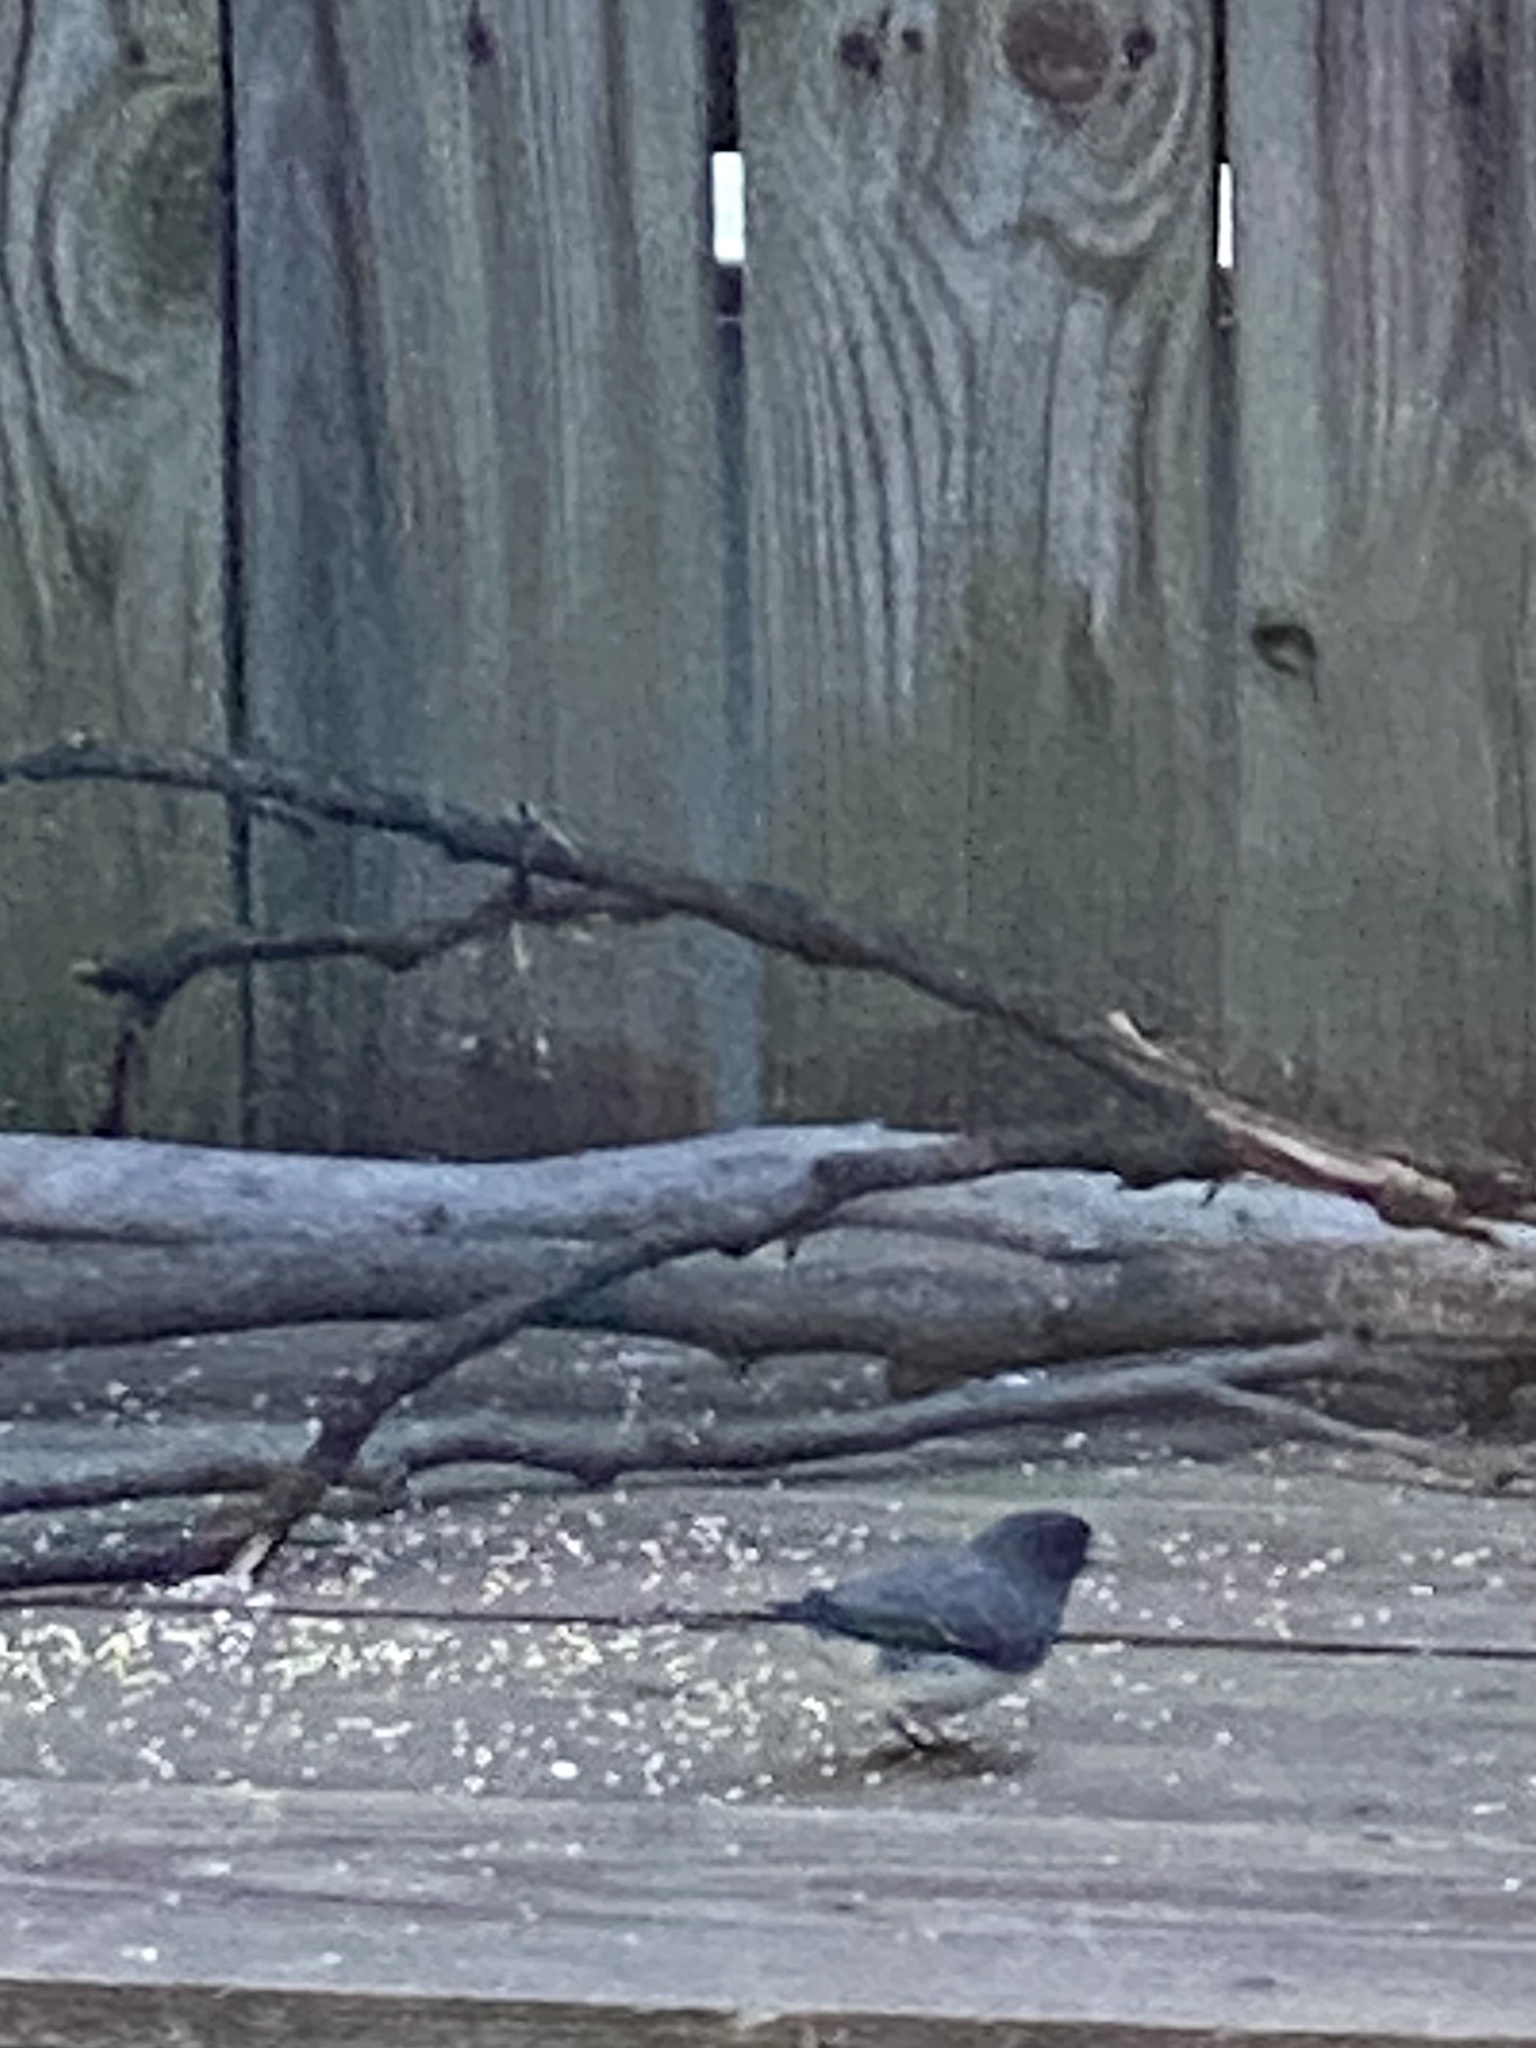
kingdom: Animalia
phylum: Chordata
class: Aves
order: Passeriformes
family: Passerellidae
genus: Junco
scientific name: Junco hyemalis
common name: Dark-eyed junco
